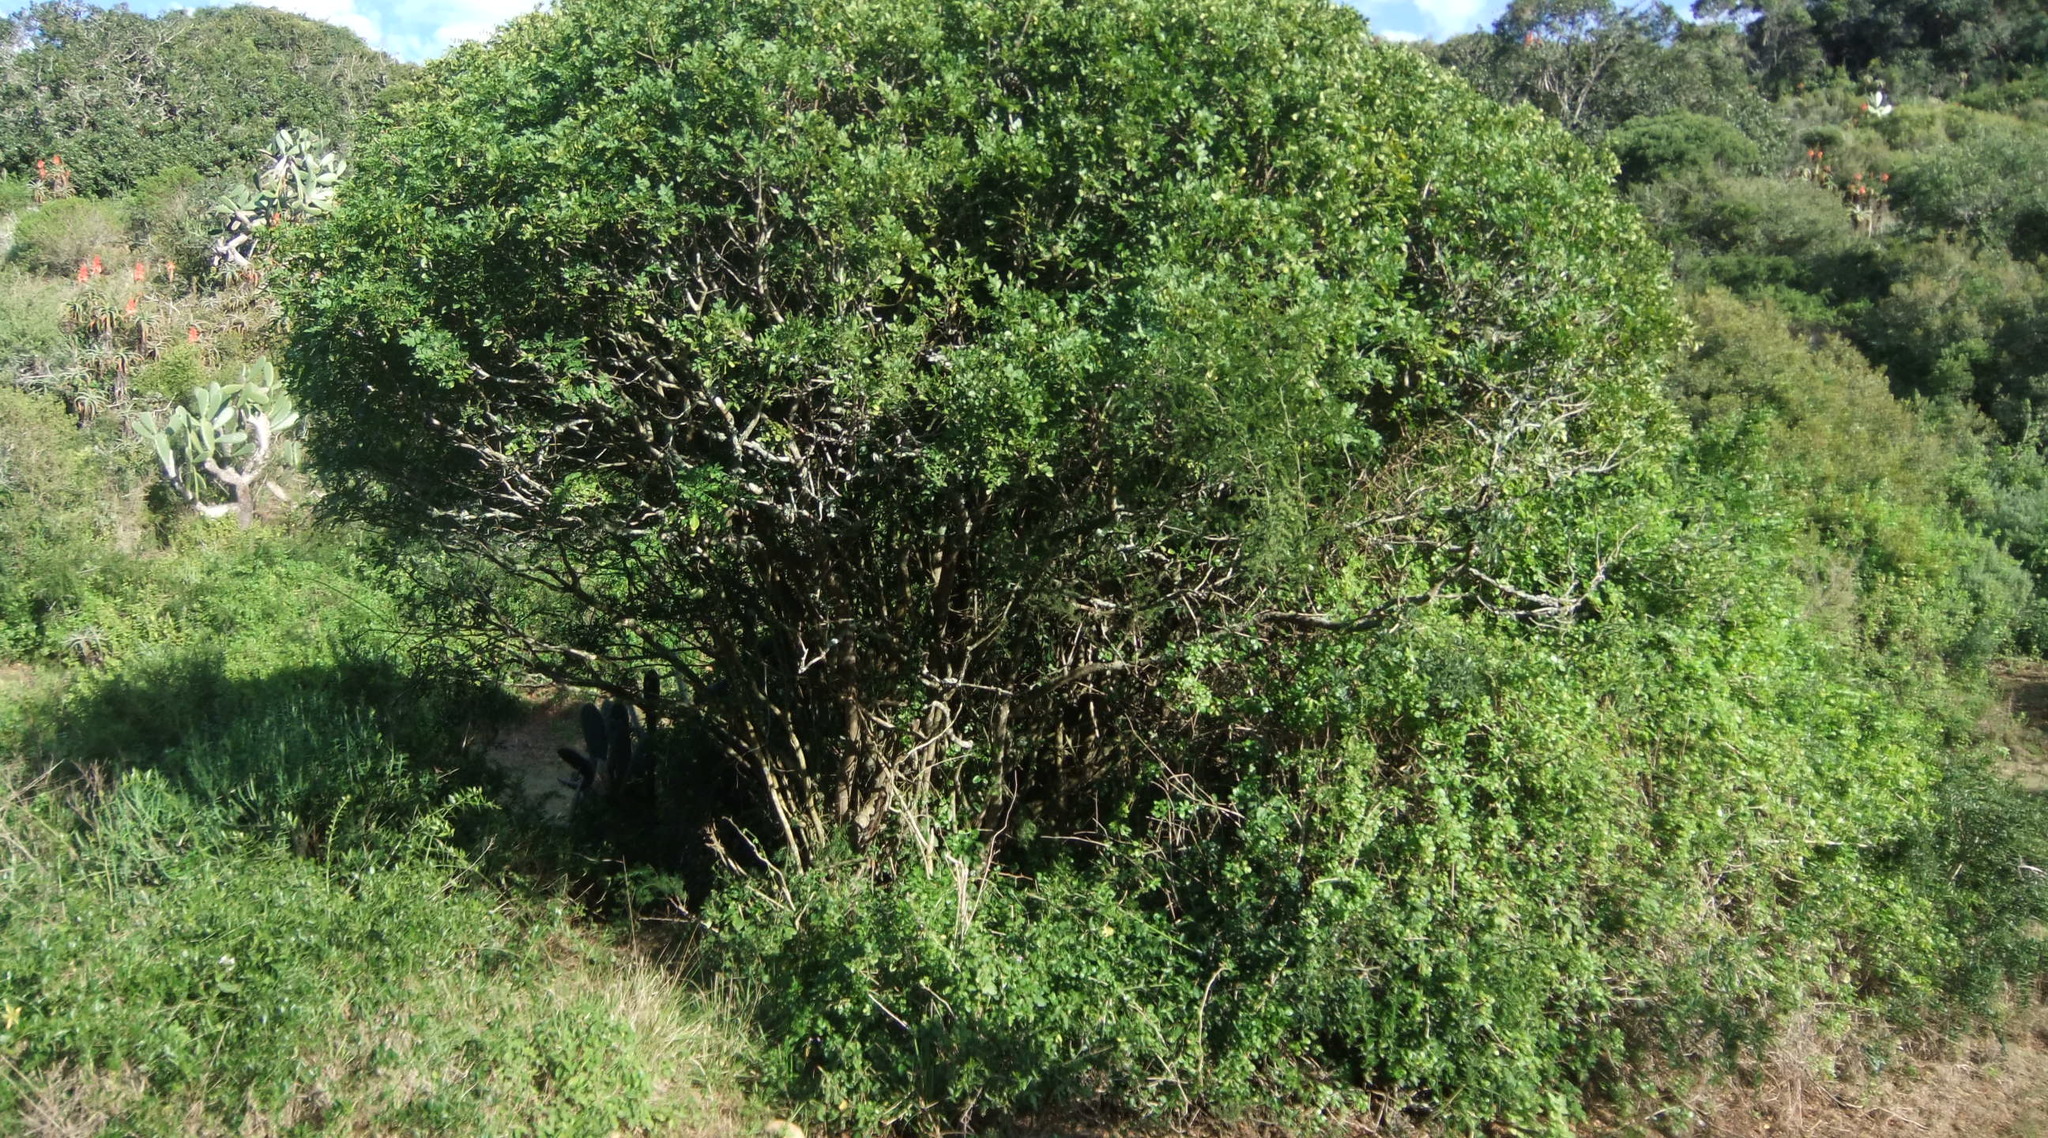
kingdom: Plantae
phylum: Tracheophyta
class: Magnoliopsida
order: Sapindales
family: Rutaceae
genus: Clausena
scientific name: Clausena anisata
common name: Horsewood
